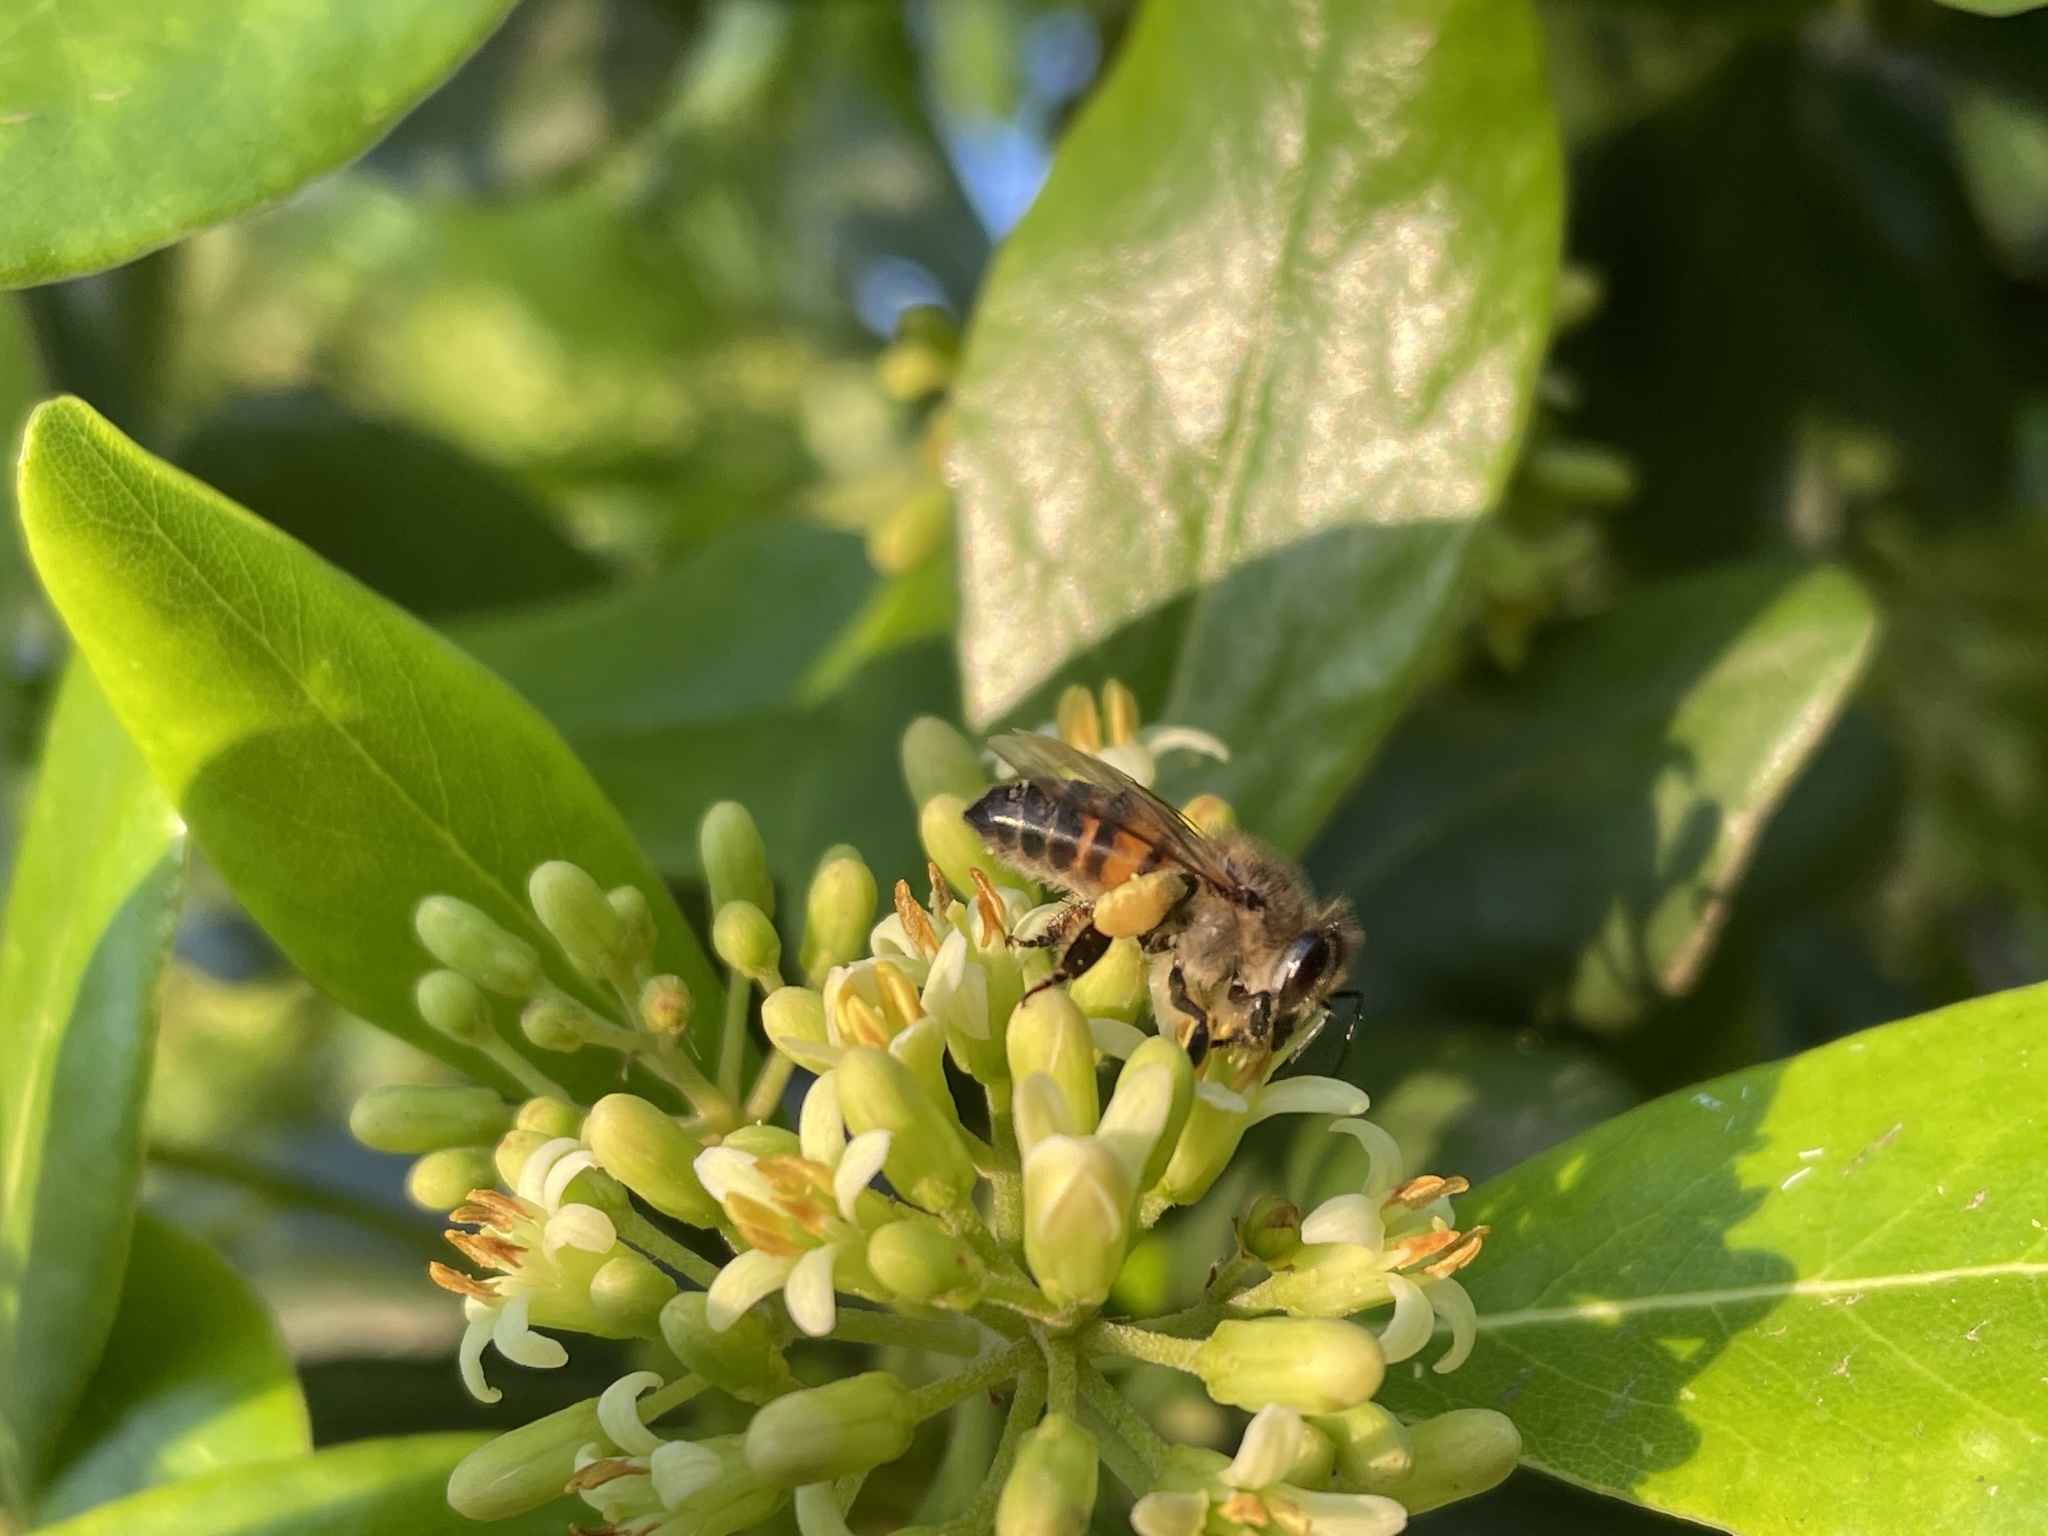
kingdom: Animalia
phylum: Arthropoda
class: Insecta
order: Hymenoptera
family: Apidae
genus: Apis
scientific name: Apis mellifera
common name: Honey bee
